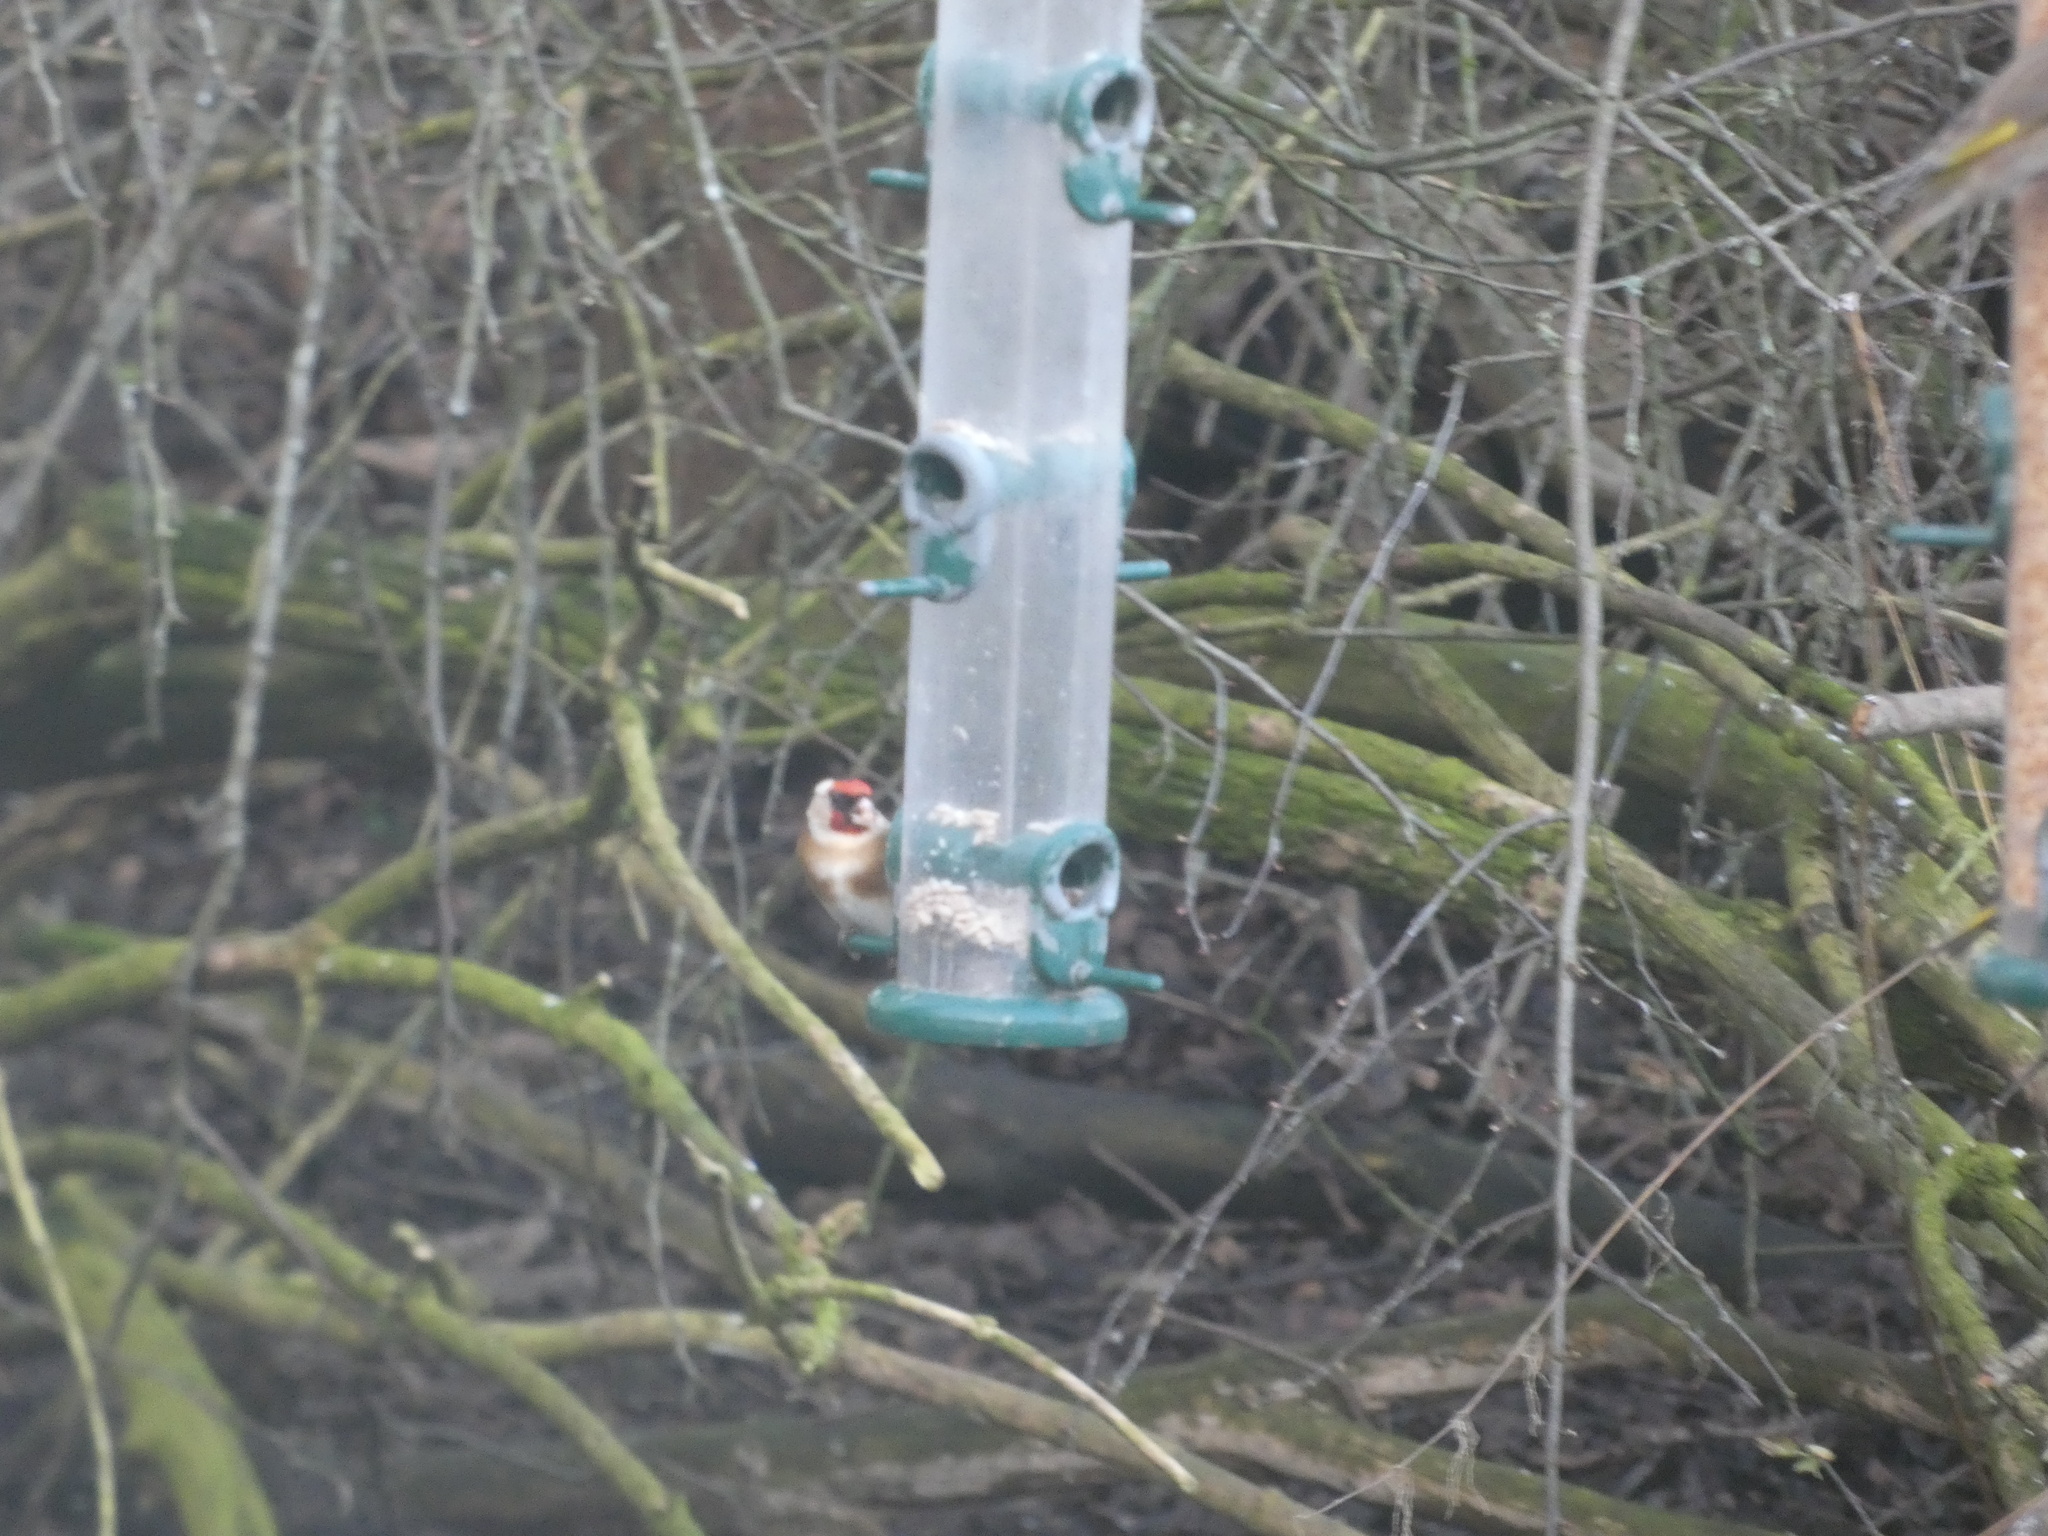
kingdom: Animalia
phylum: Chordata
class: Aves
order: Passeriformes
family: Fringillidae
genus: Carduelis
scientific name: Carduelis carduelis
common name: European goldfinch
